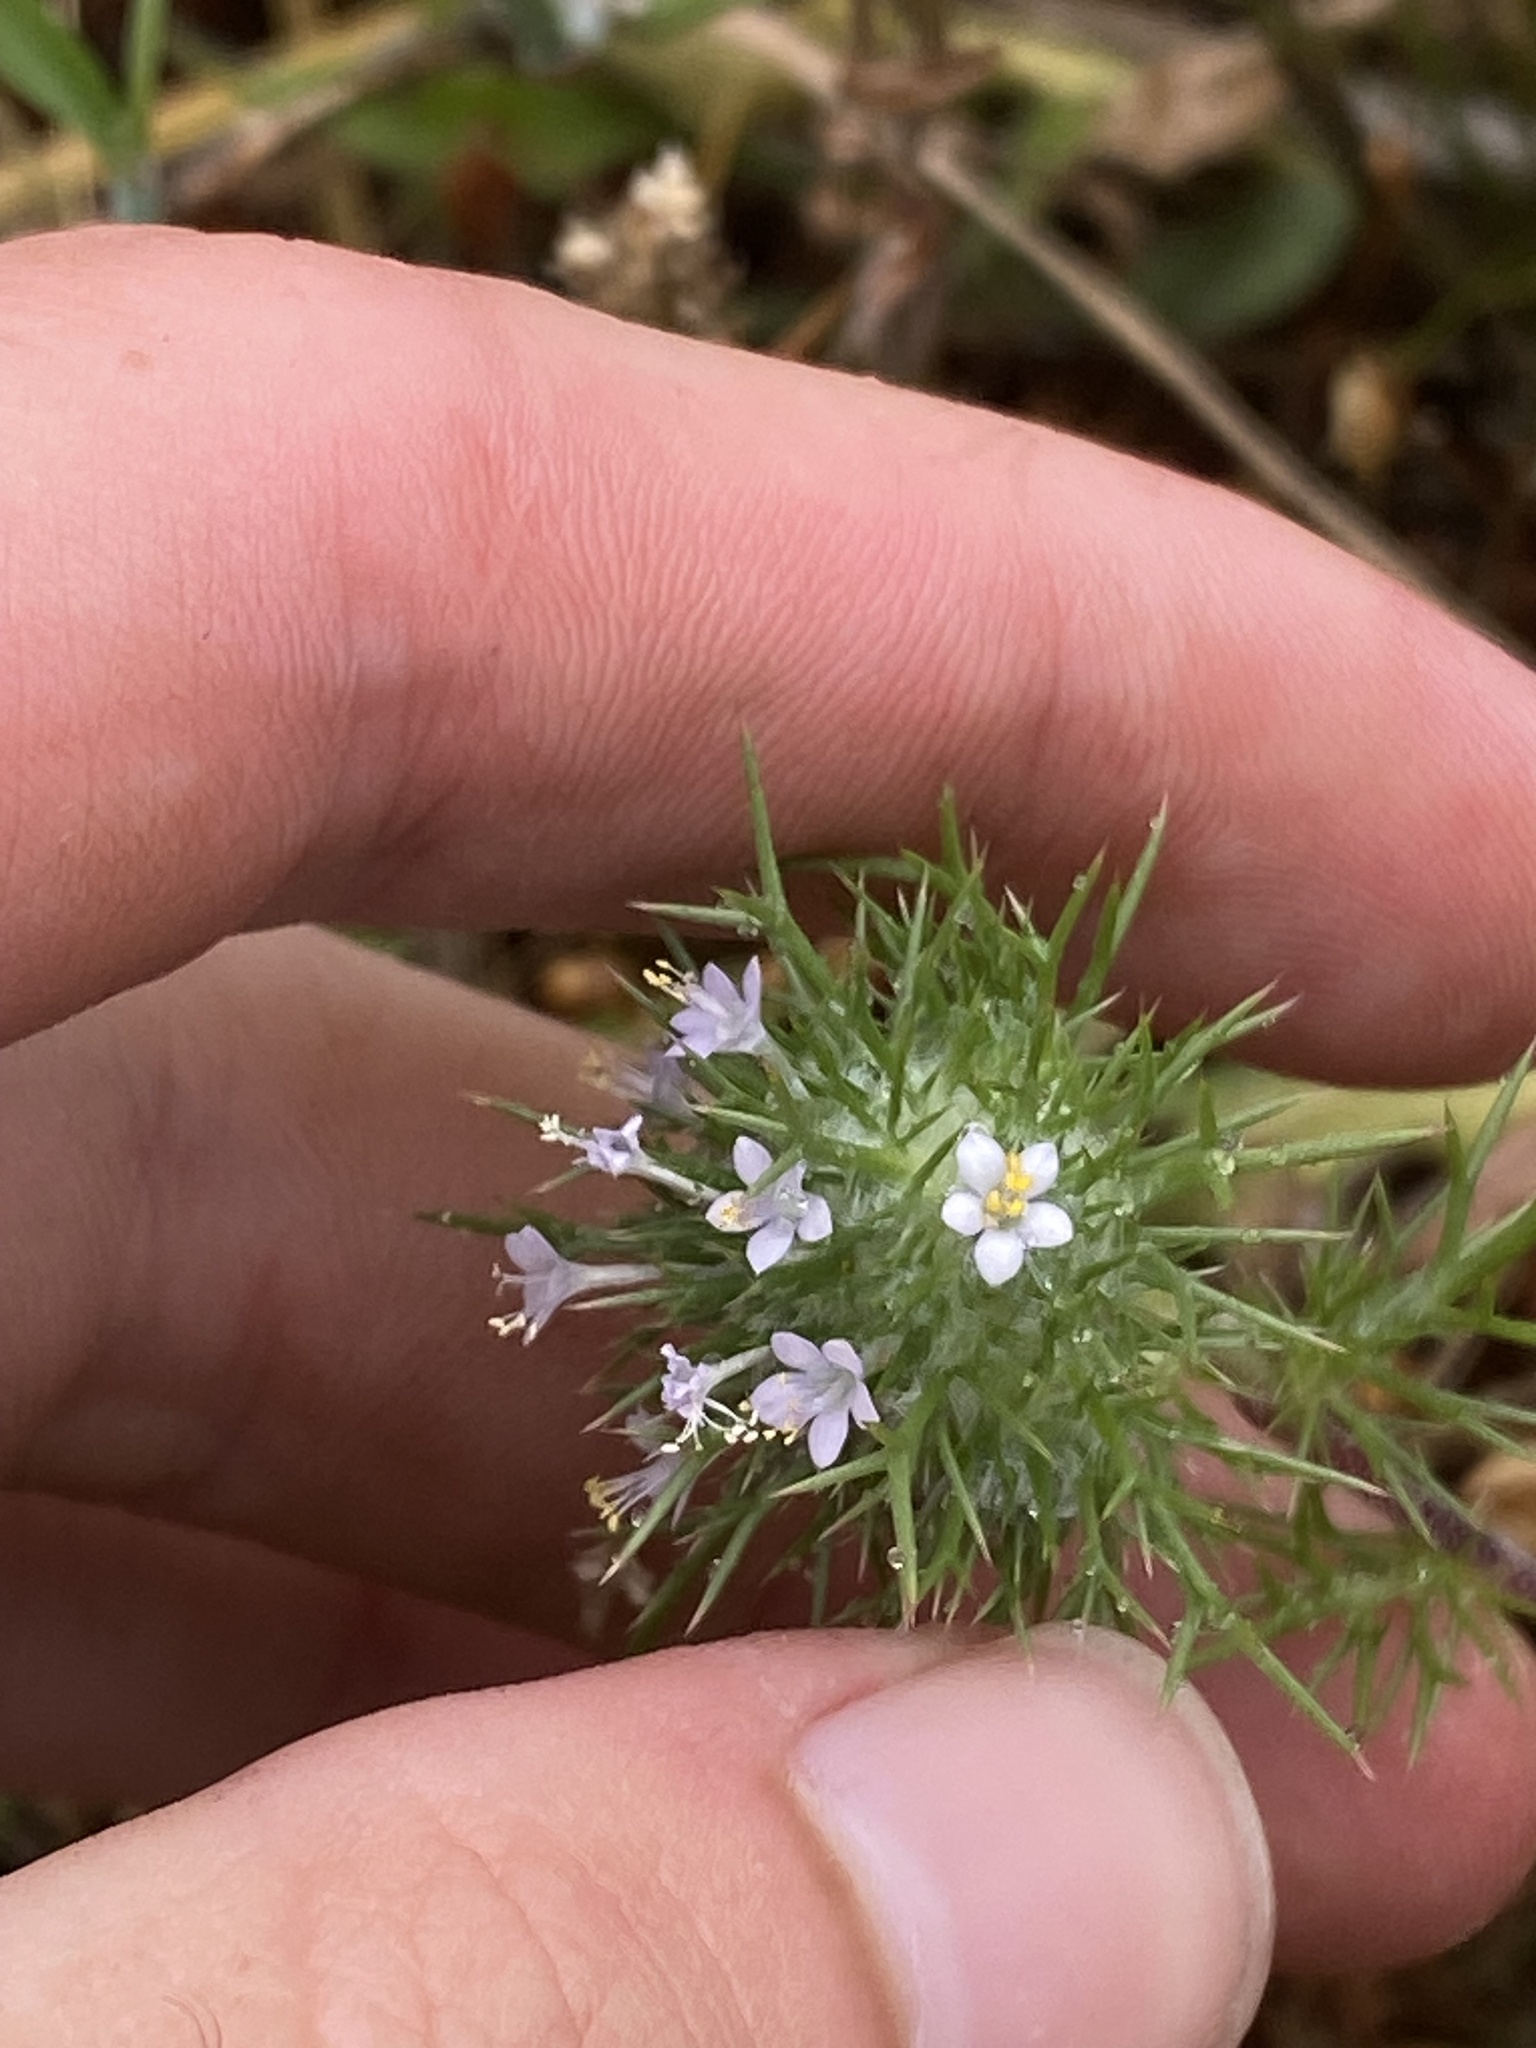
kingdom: Plantae
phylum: Tracheophyta
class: Magnoliopsida
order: Ericales
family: Polemoniaceae
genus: Navarretia
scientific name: Navarretia intertexta
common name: Needle-leaved navarretia
